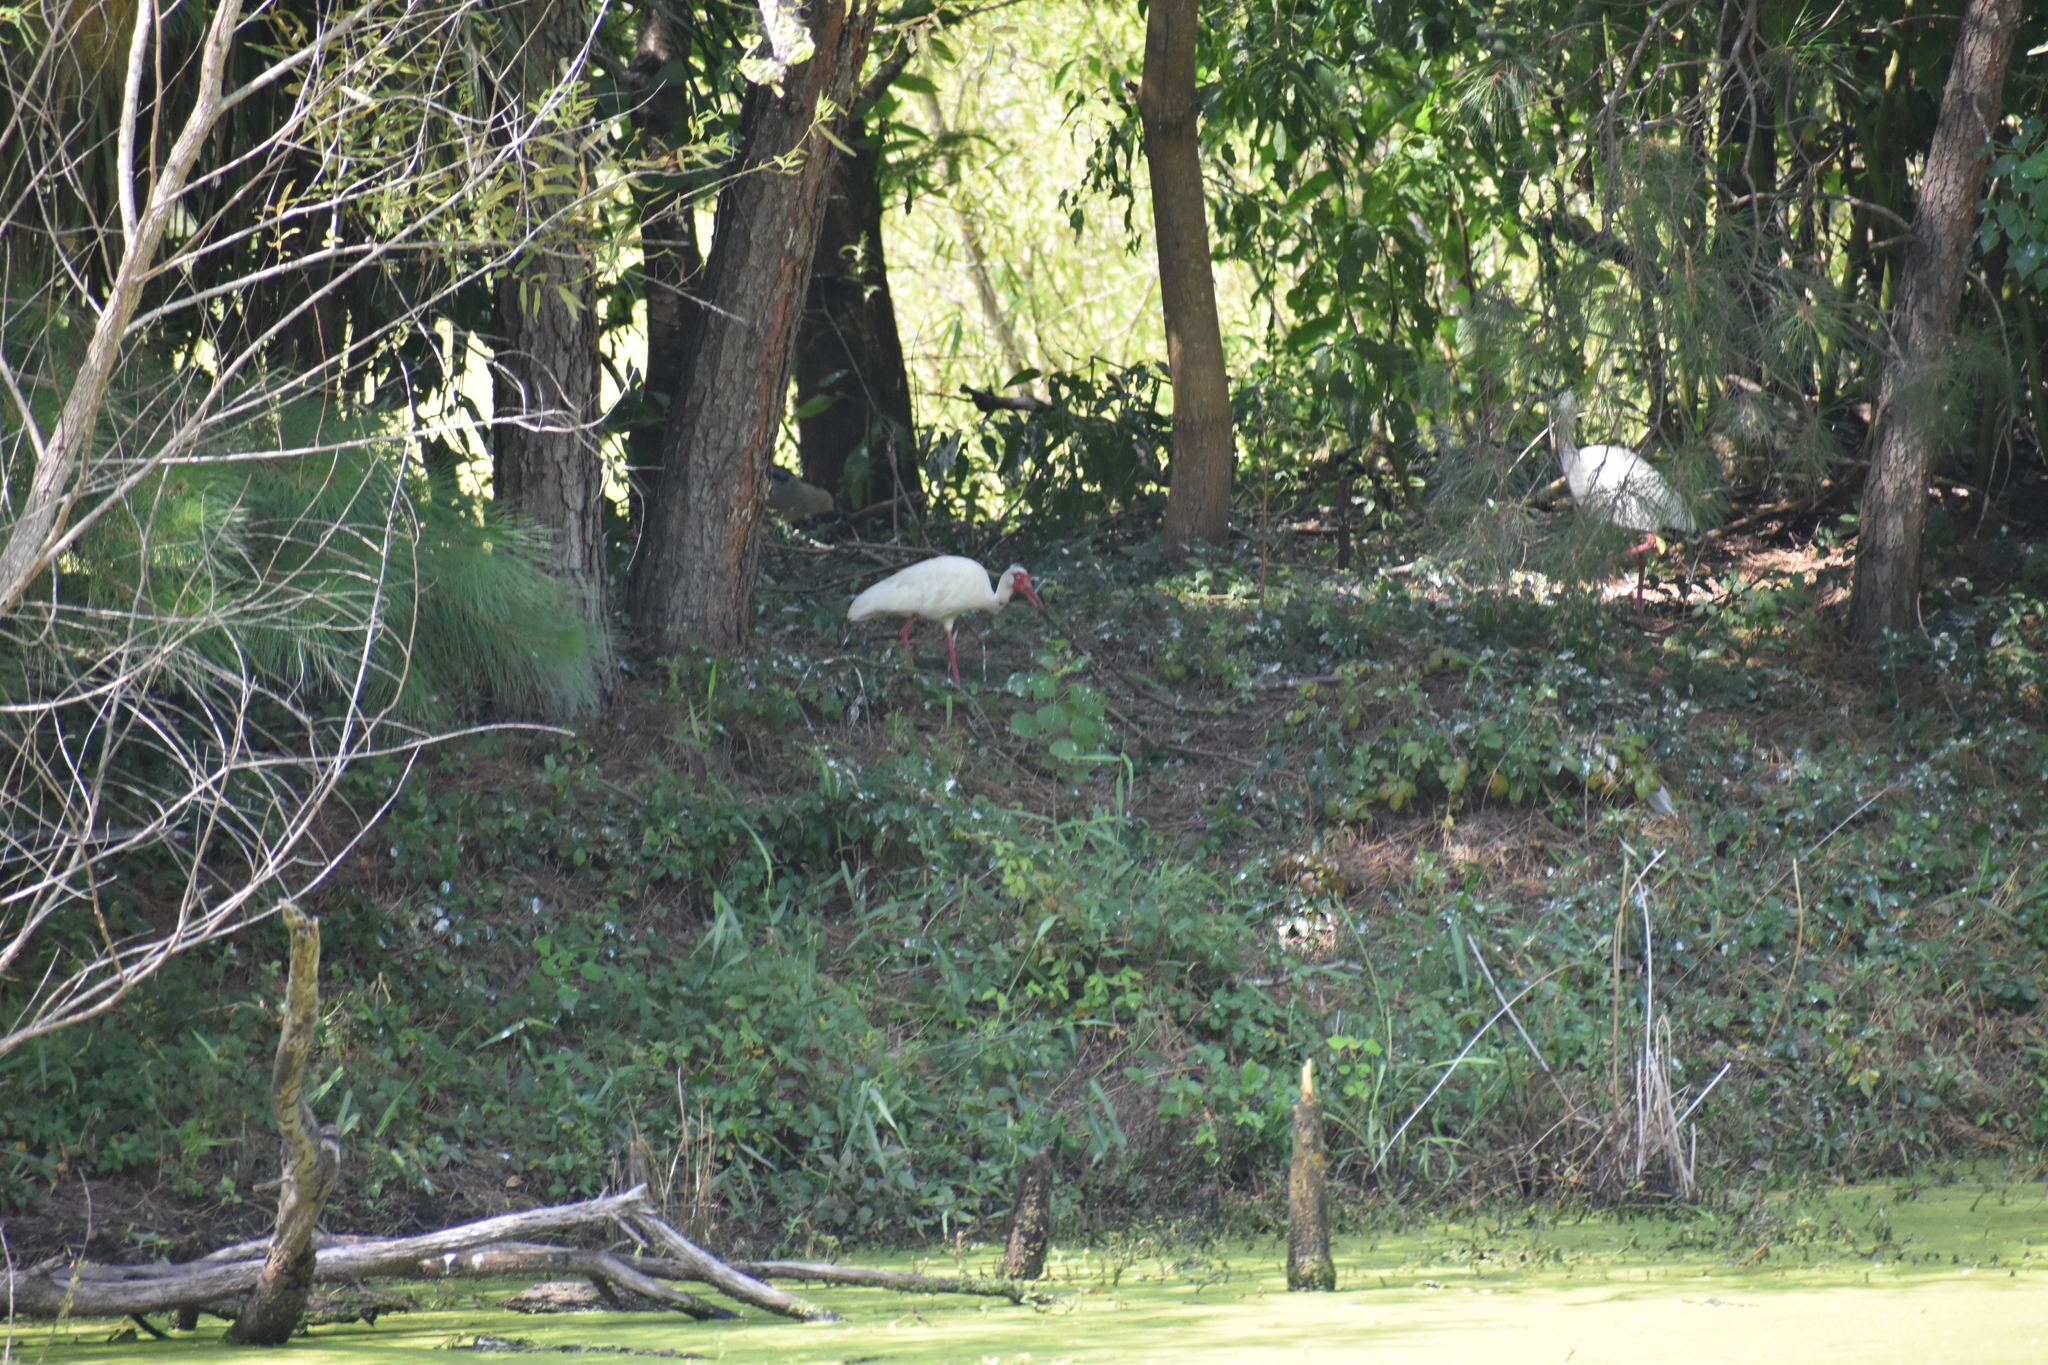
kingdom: Animalia
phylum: Chordata
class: Aves
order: Pelecaniformes
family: Threskiornithidae
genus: Eudocimus
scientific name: Eudocimus albus
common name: White ibis
